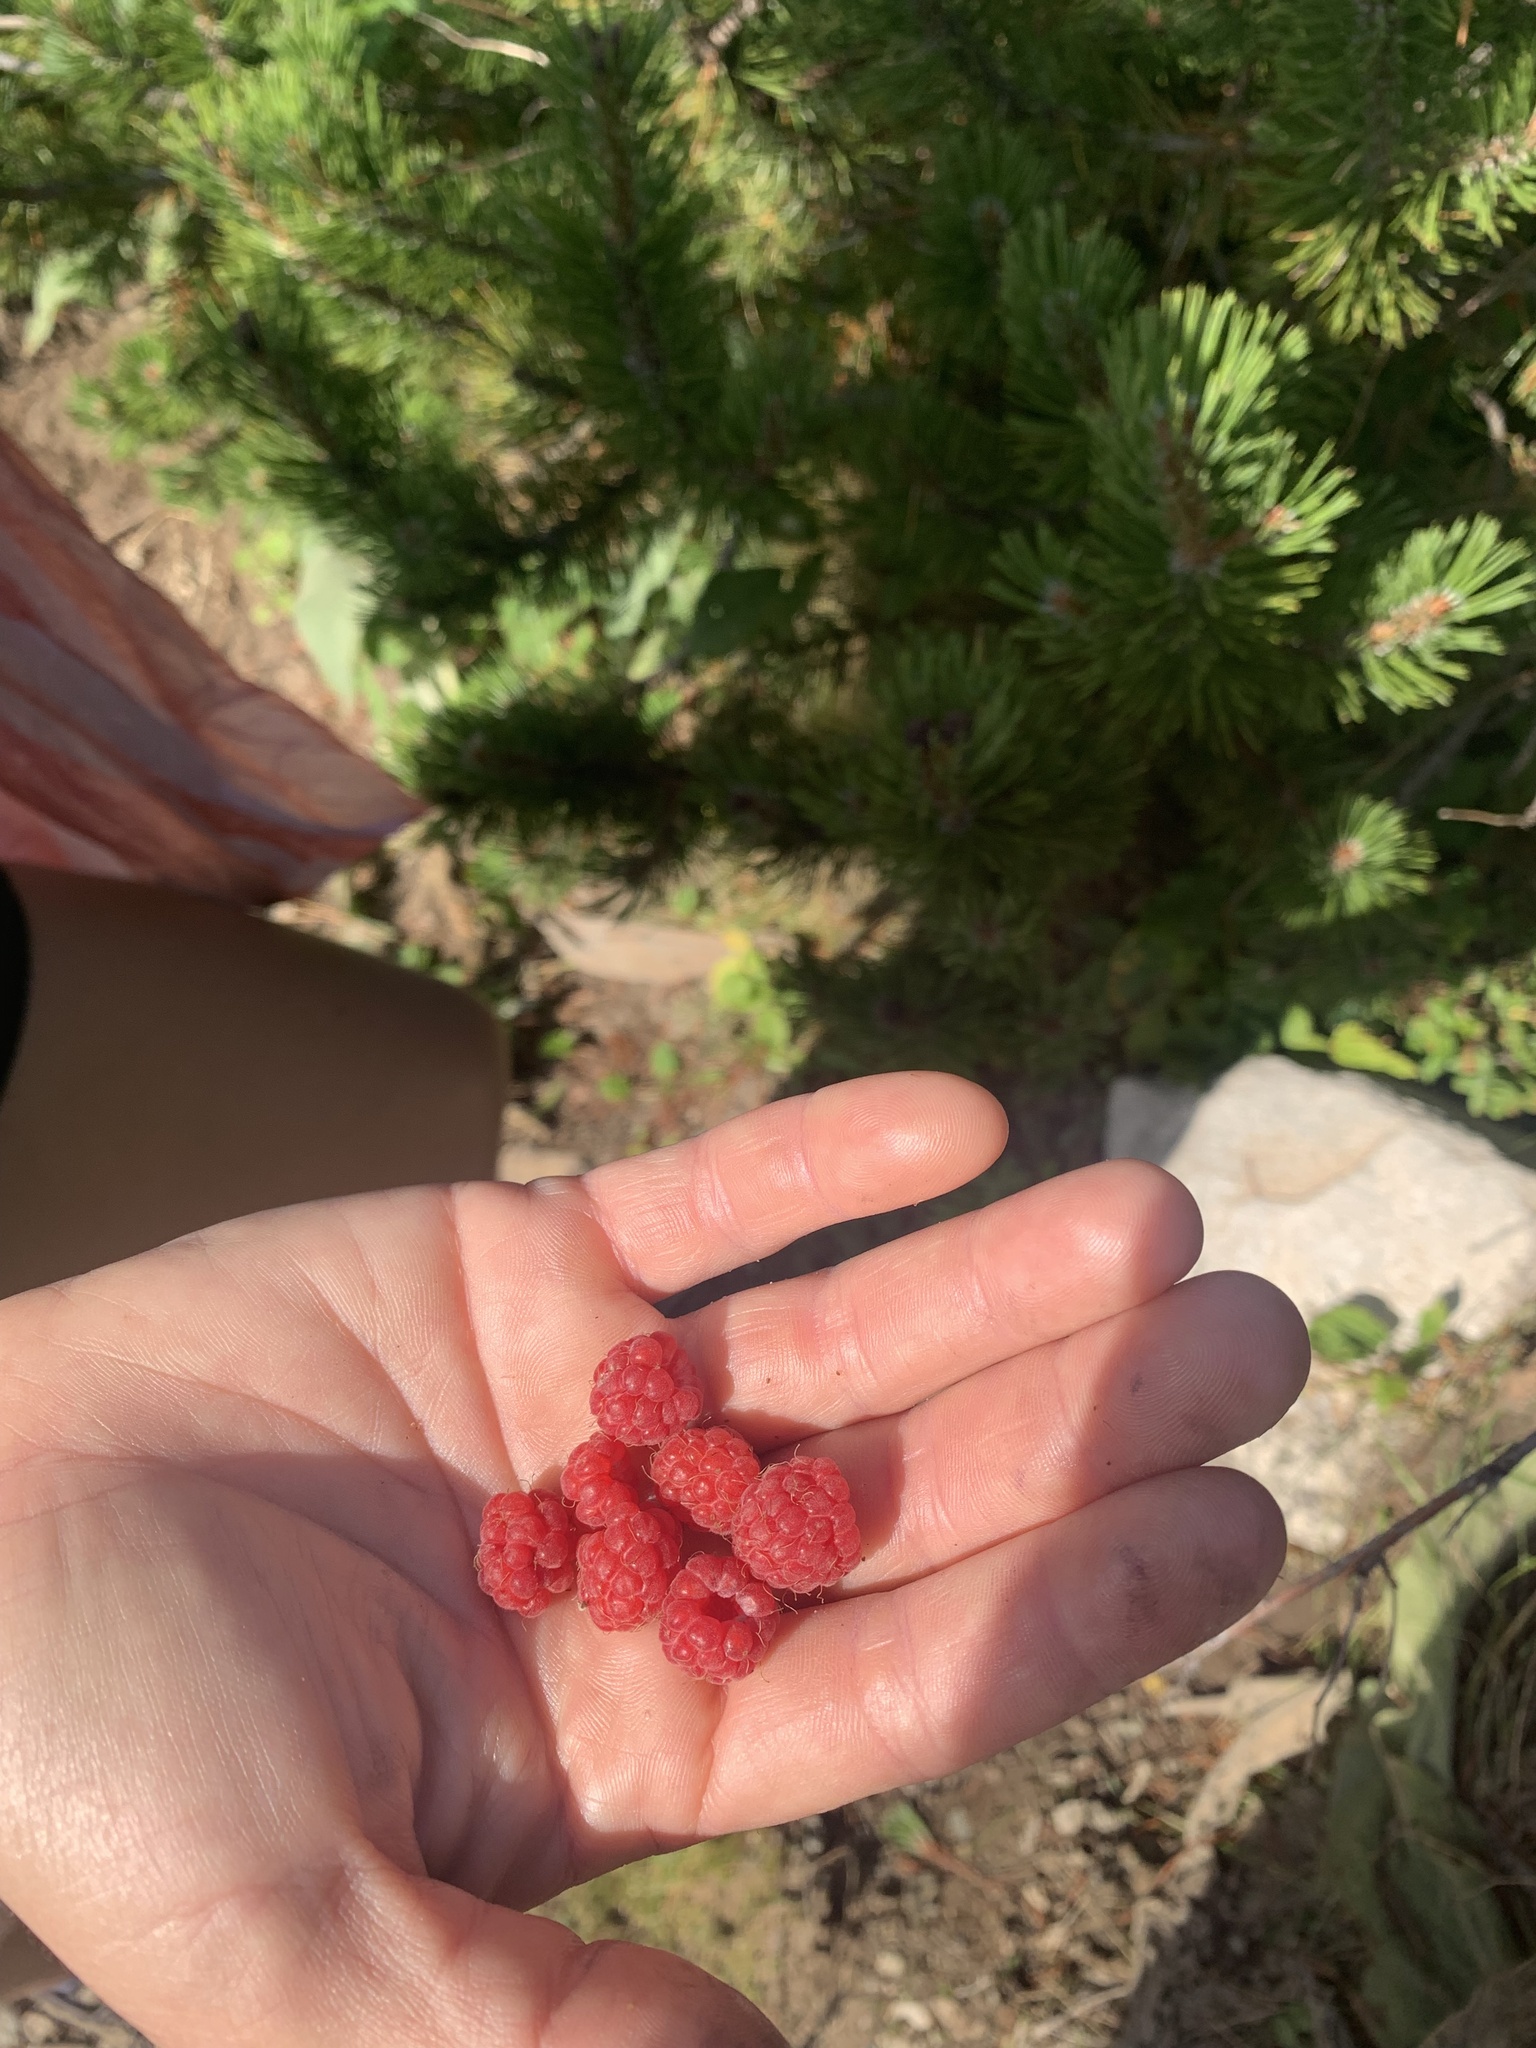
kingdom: Plantae
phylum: Tracheophyta
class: Magnoliopsida
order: Rosales
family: Rosaceae
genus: Rubus
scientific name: Rubus idaeus
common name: Raspberry
